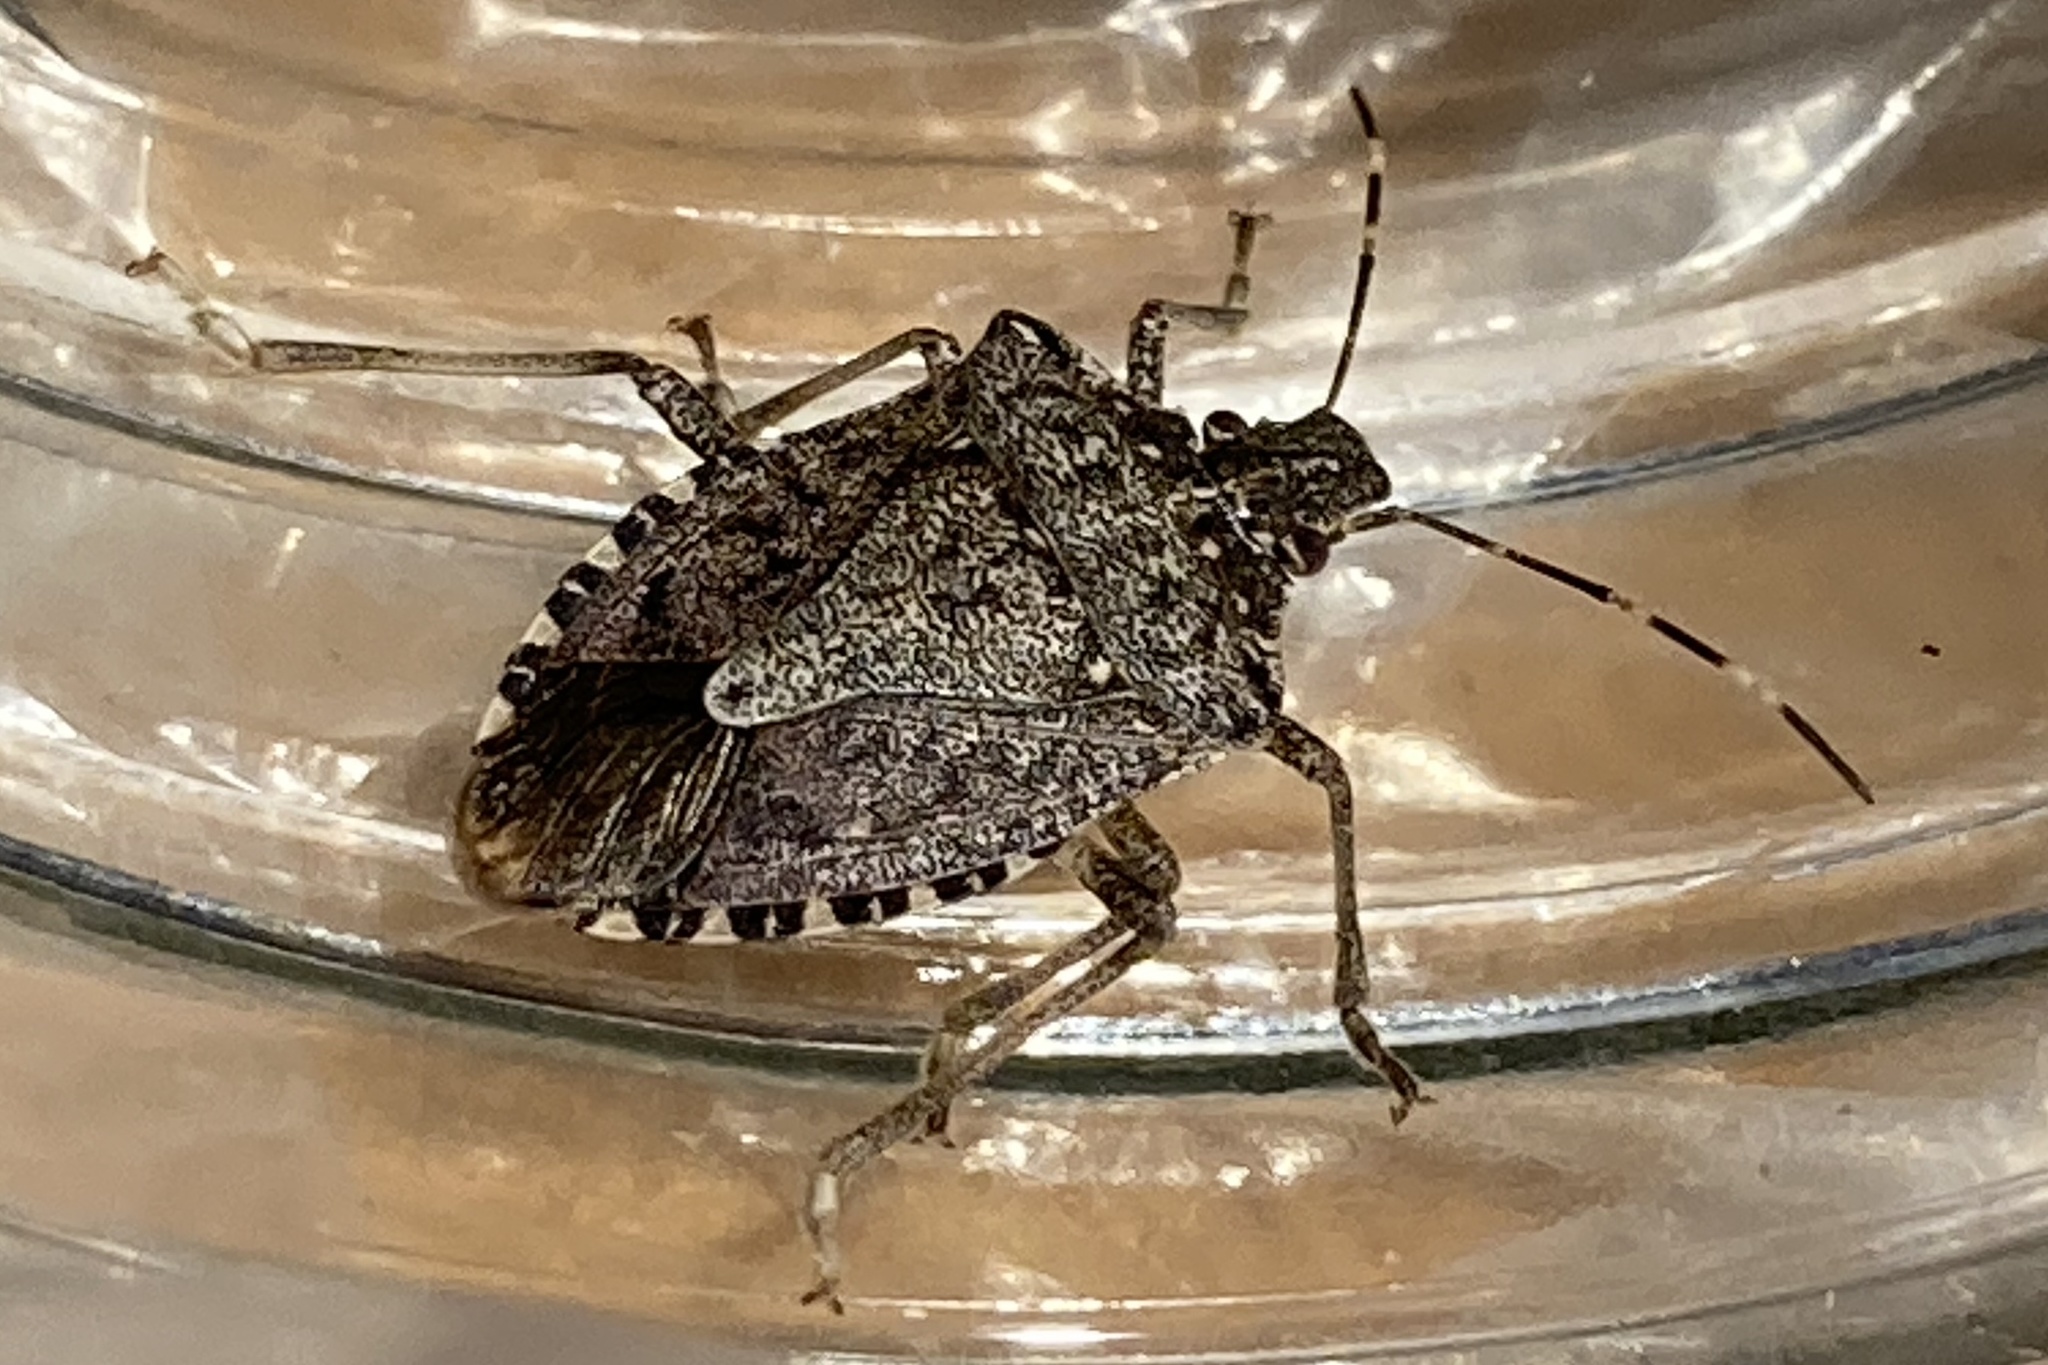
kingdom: Animalia
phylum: Arthropoda
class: Insecta
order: Hemiptera
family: Pentatomidae
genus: Halyomorpha
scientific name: Halyomorpha halys
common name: Brown marmorated stink bug
